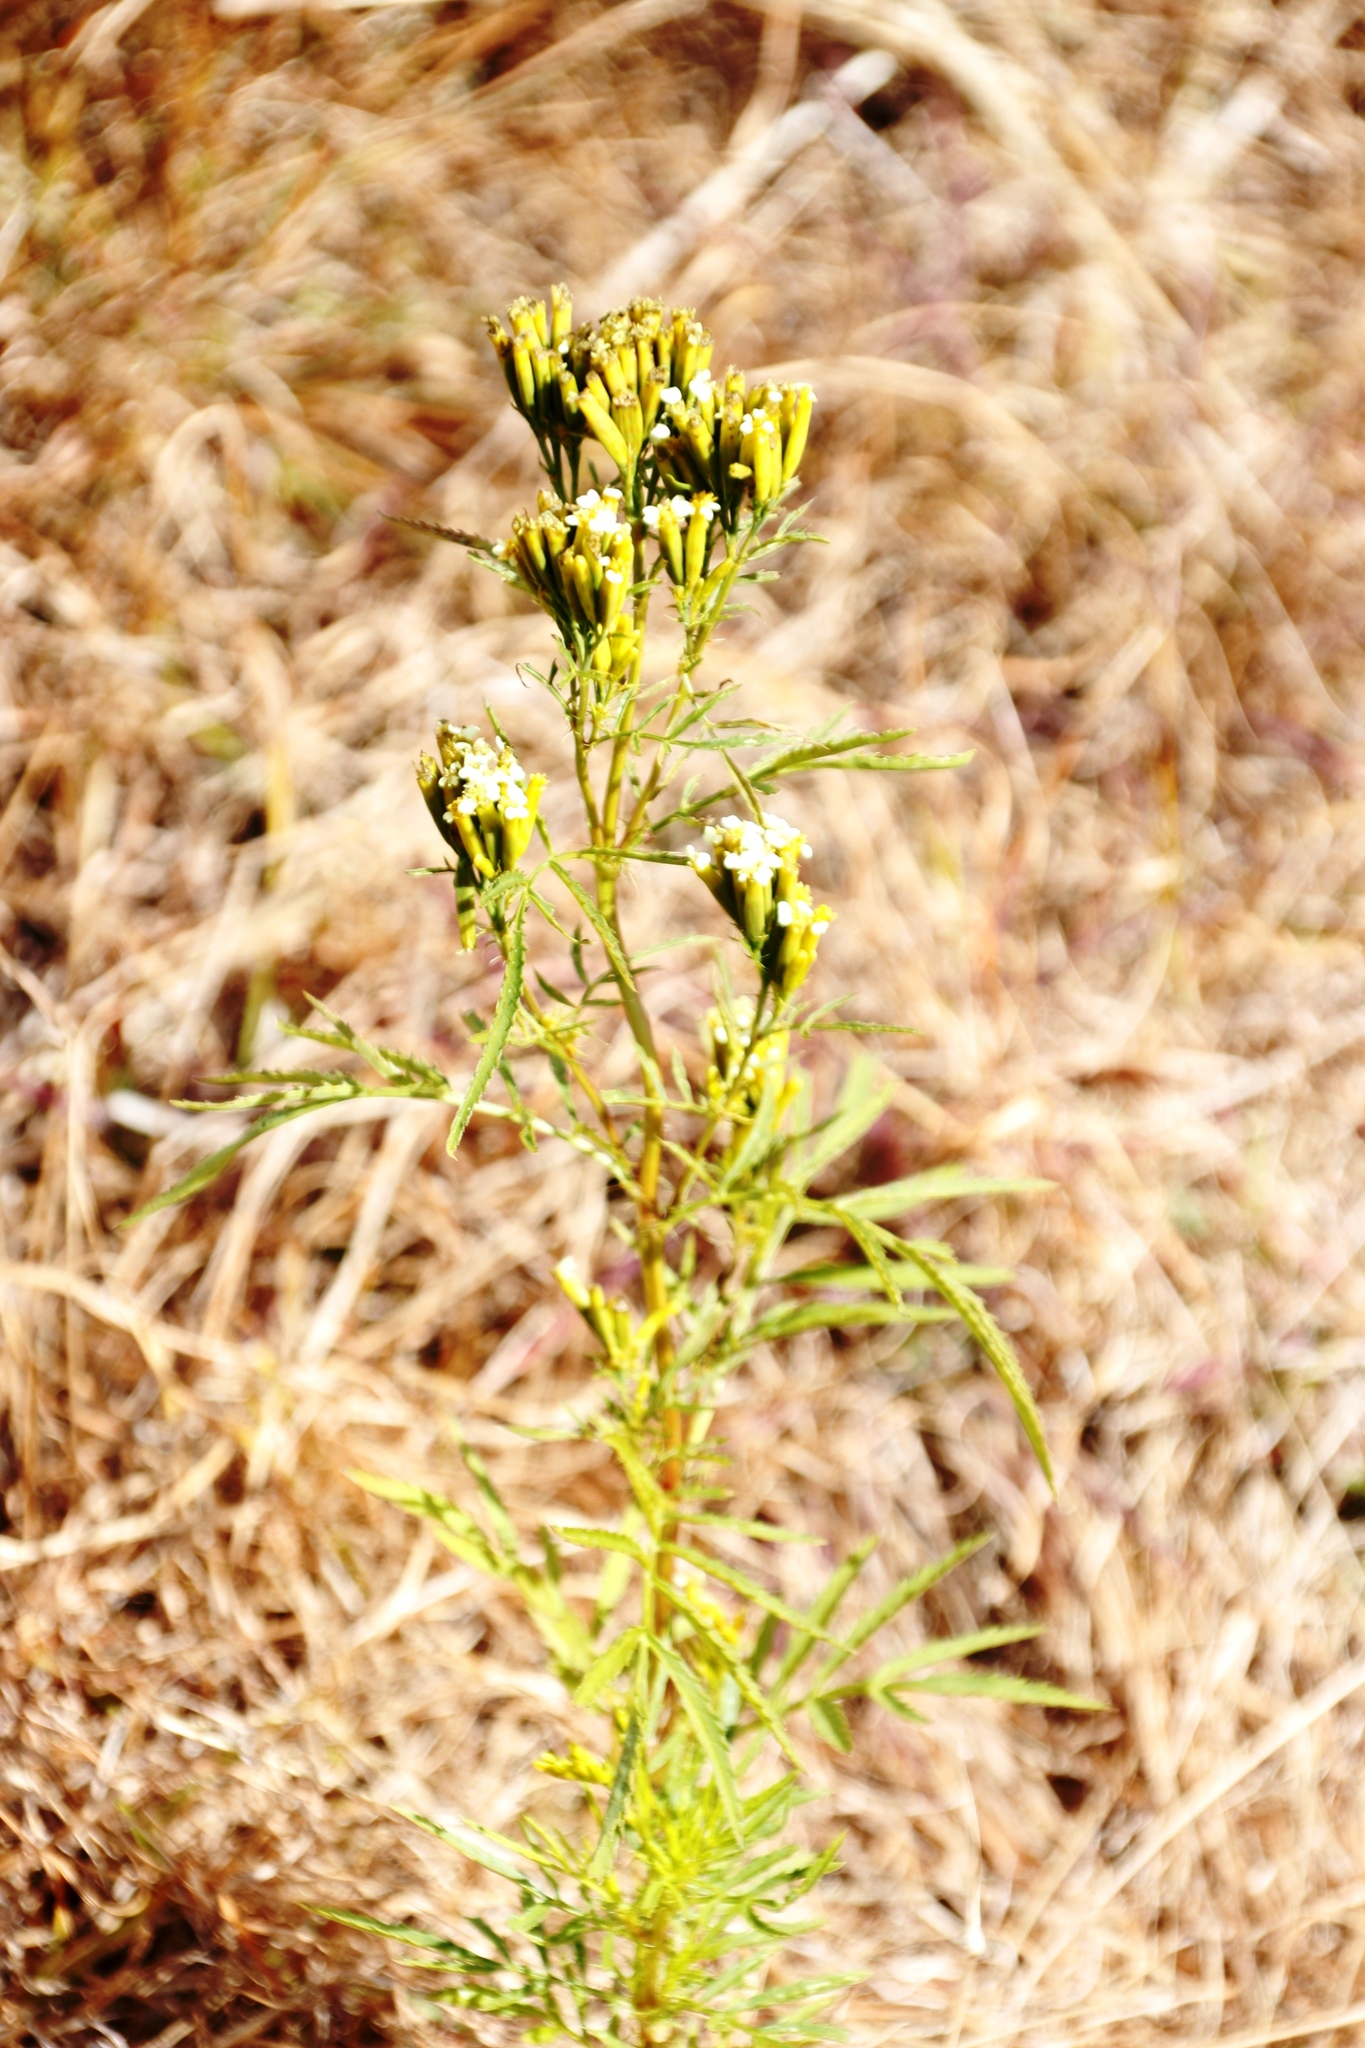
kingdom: Plantae
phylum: Tracheophyta
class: Magnoliopsida
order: Asterales
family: Asteraceae
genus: Tagetes
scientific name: Tagetes minuta
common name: Muster john henry
